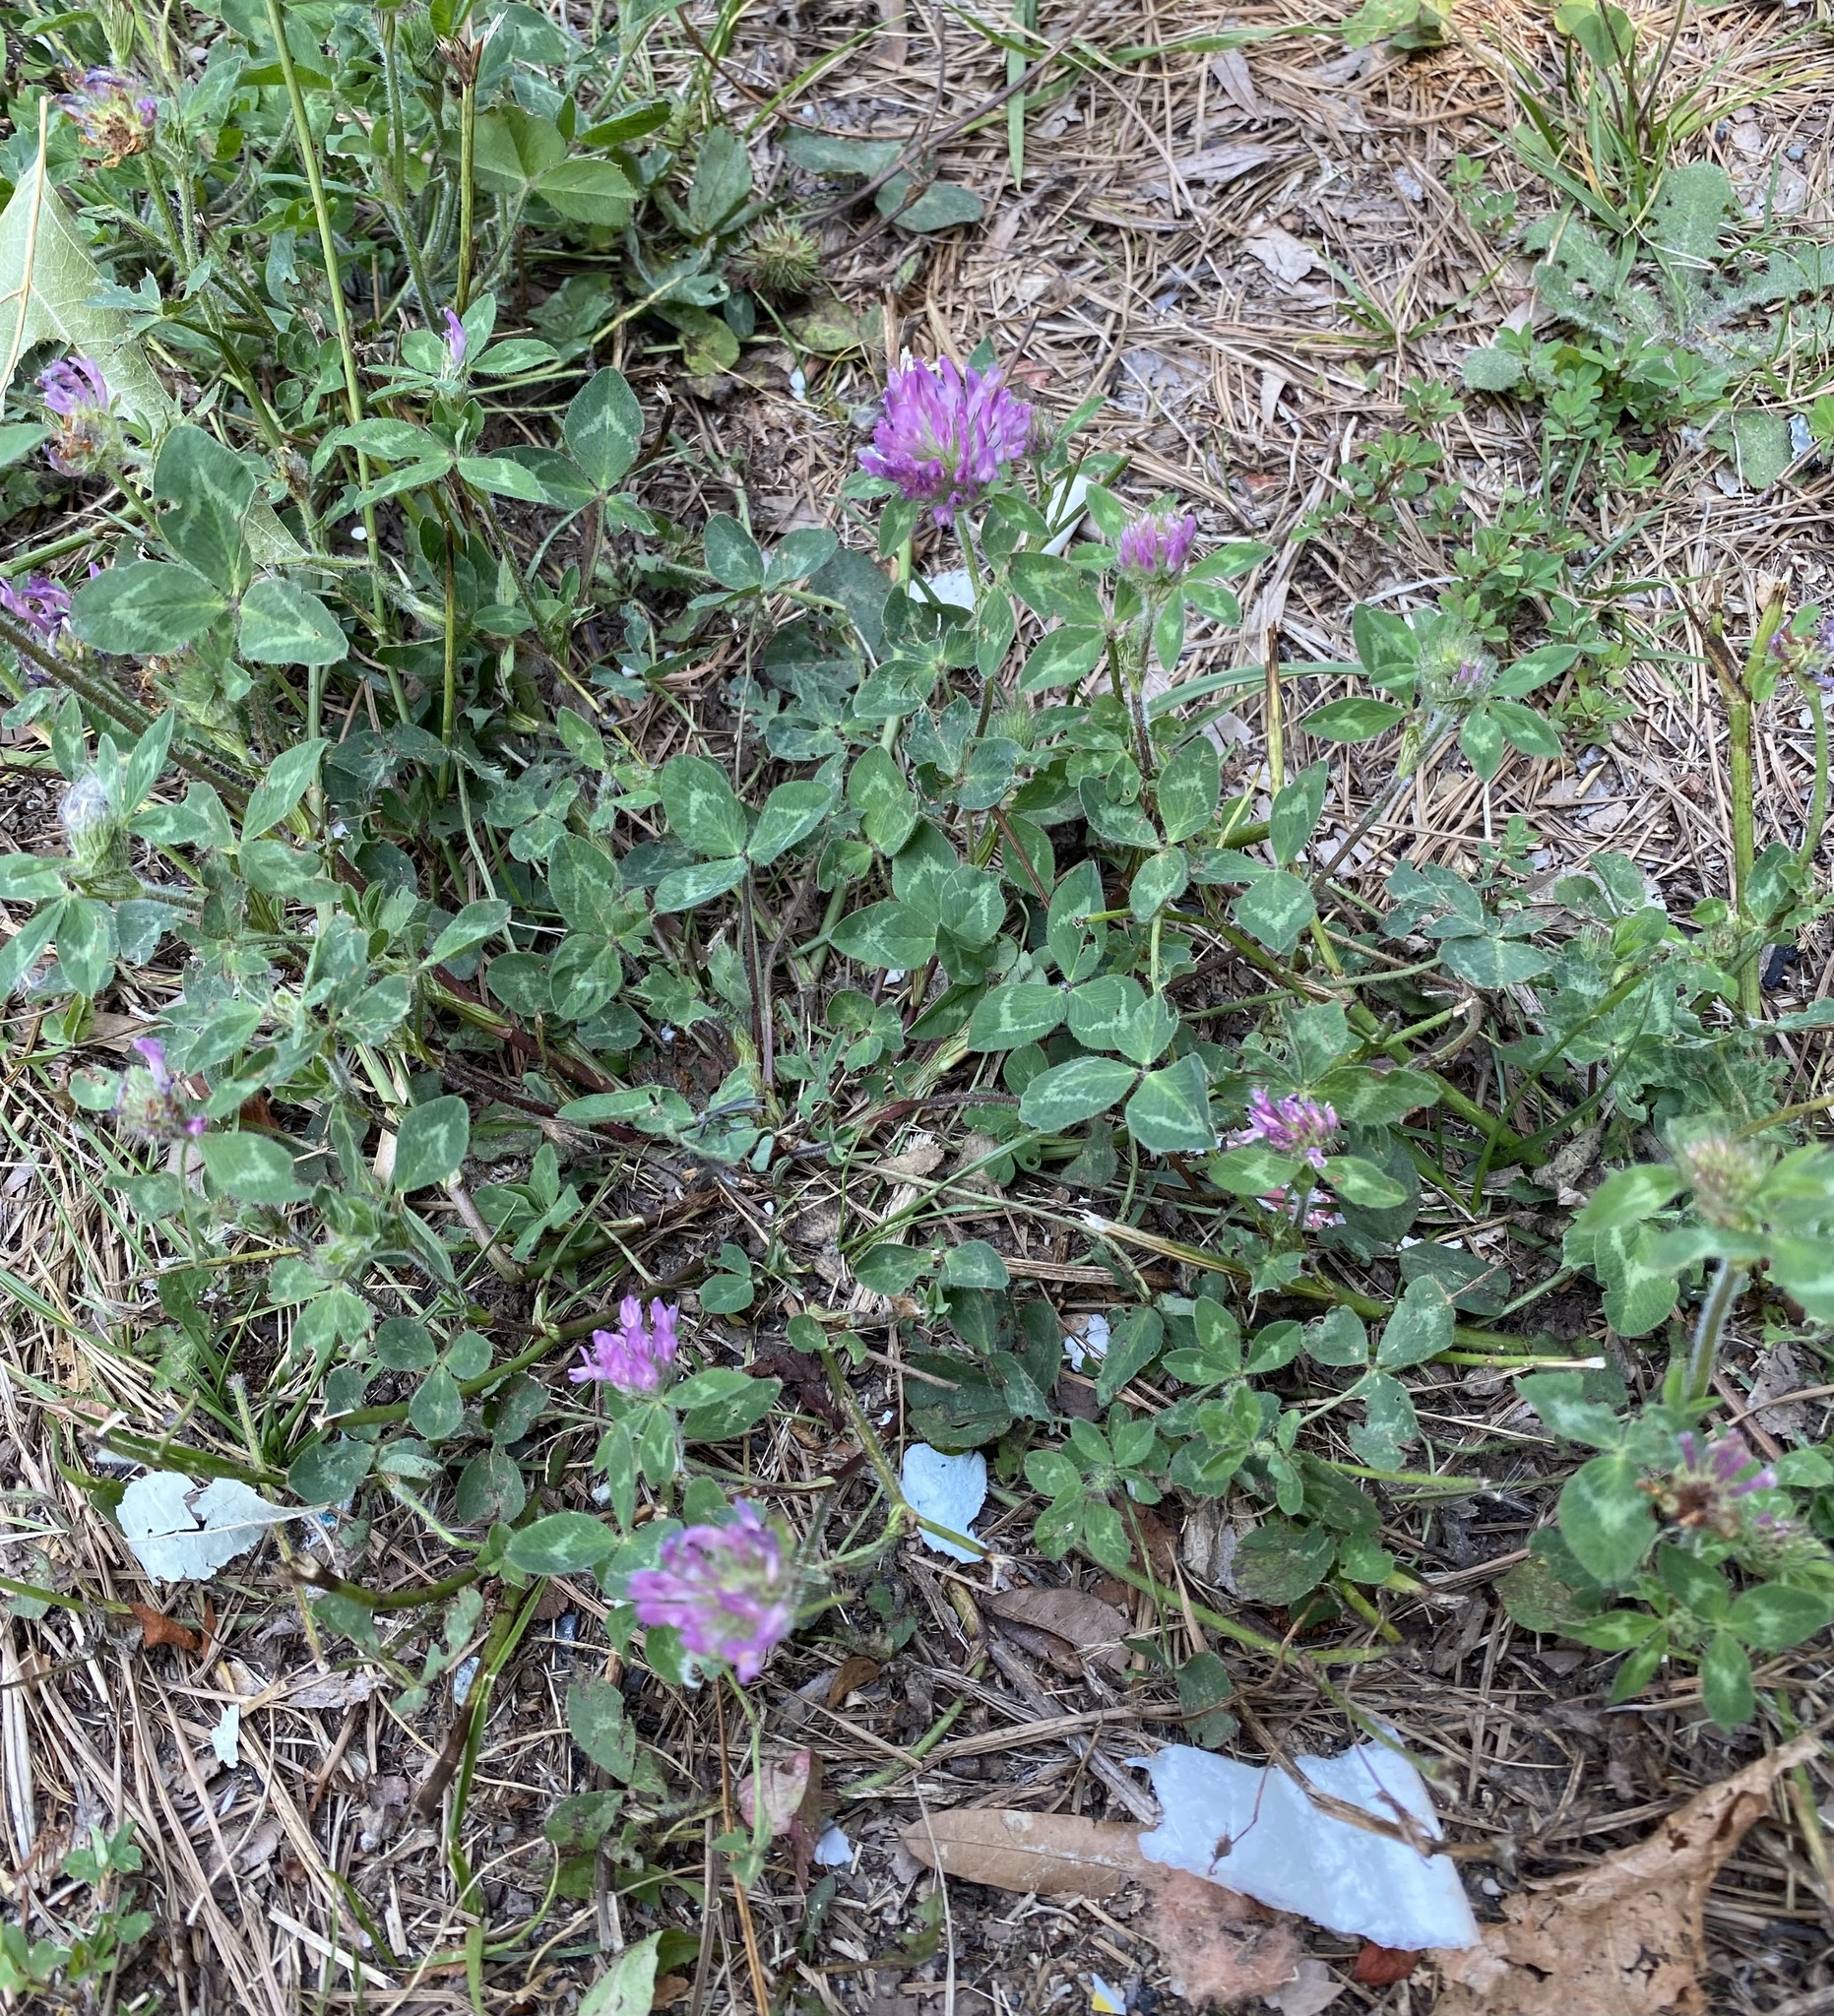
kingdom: Plantae
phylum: Tracheophyta
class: Magnoliopsida
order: Fabales
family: Fabaceae
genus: Trifolium
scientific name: Trifolium pratense
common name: Red clover
